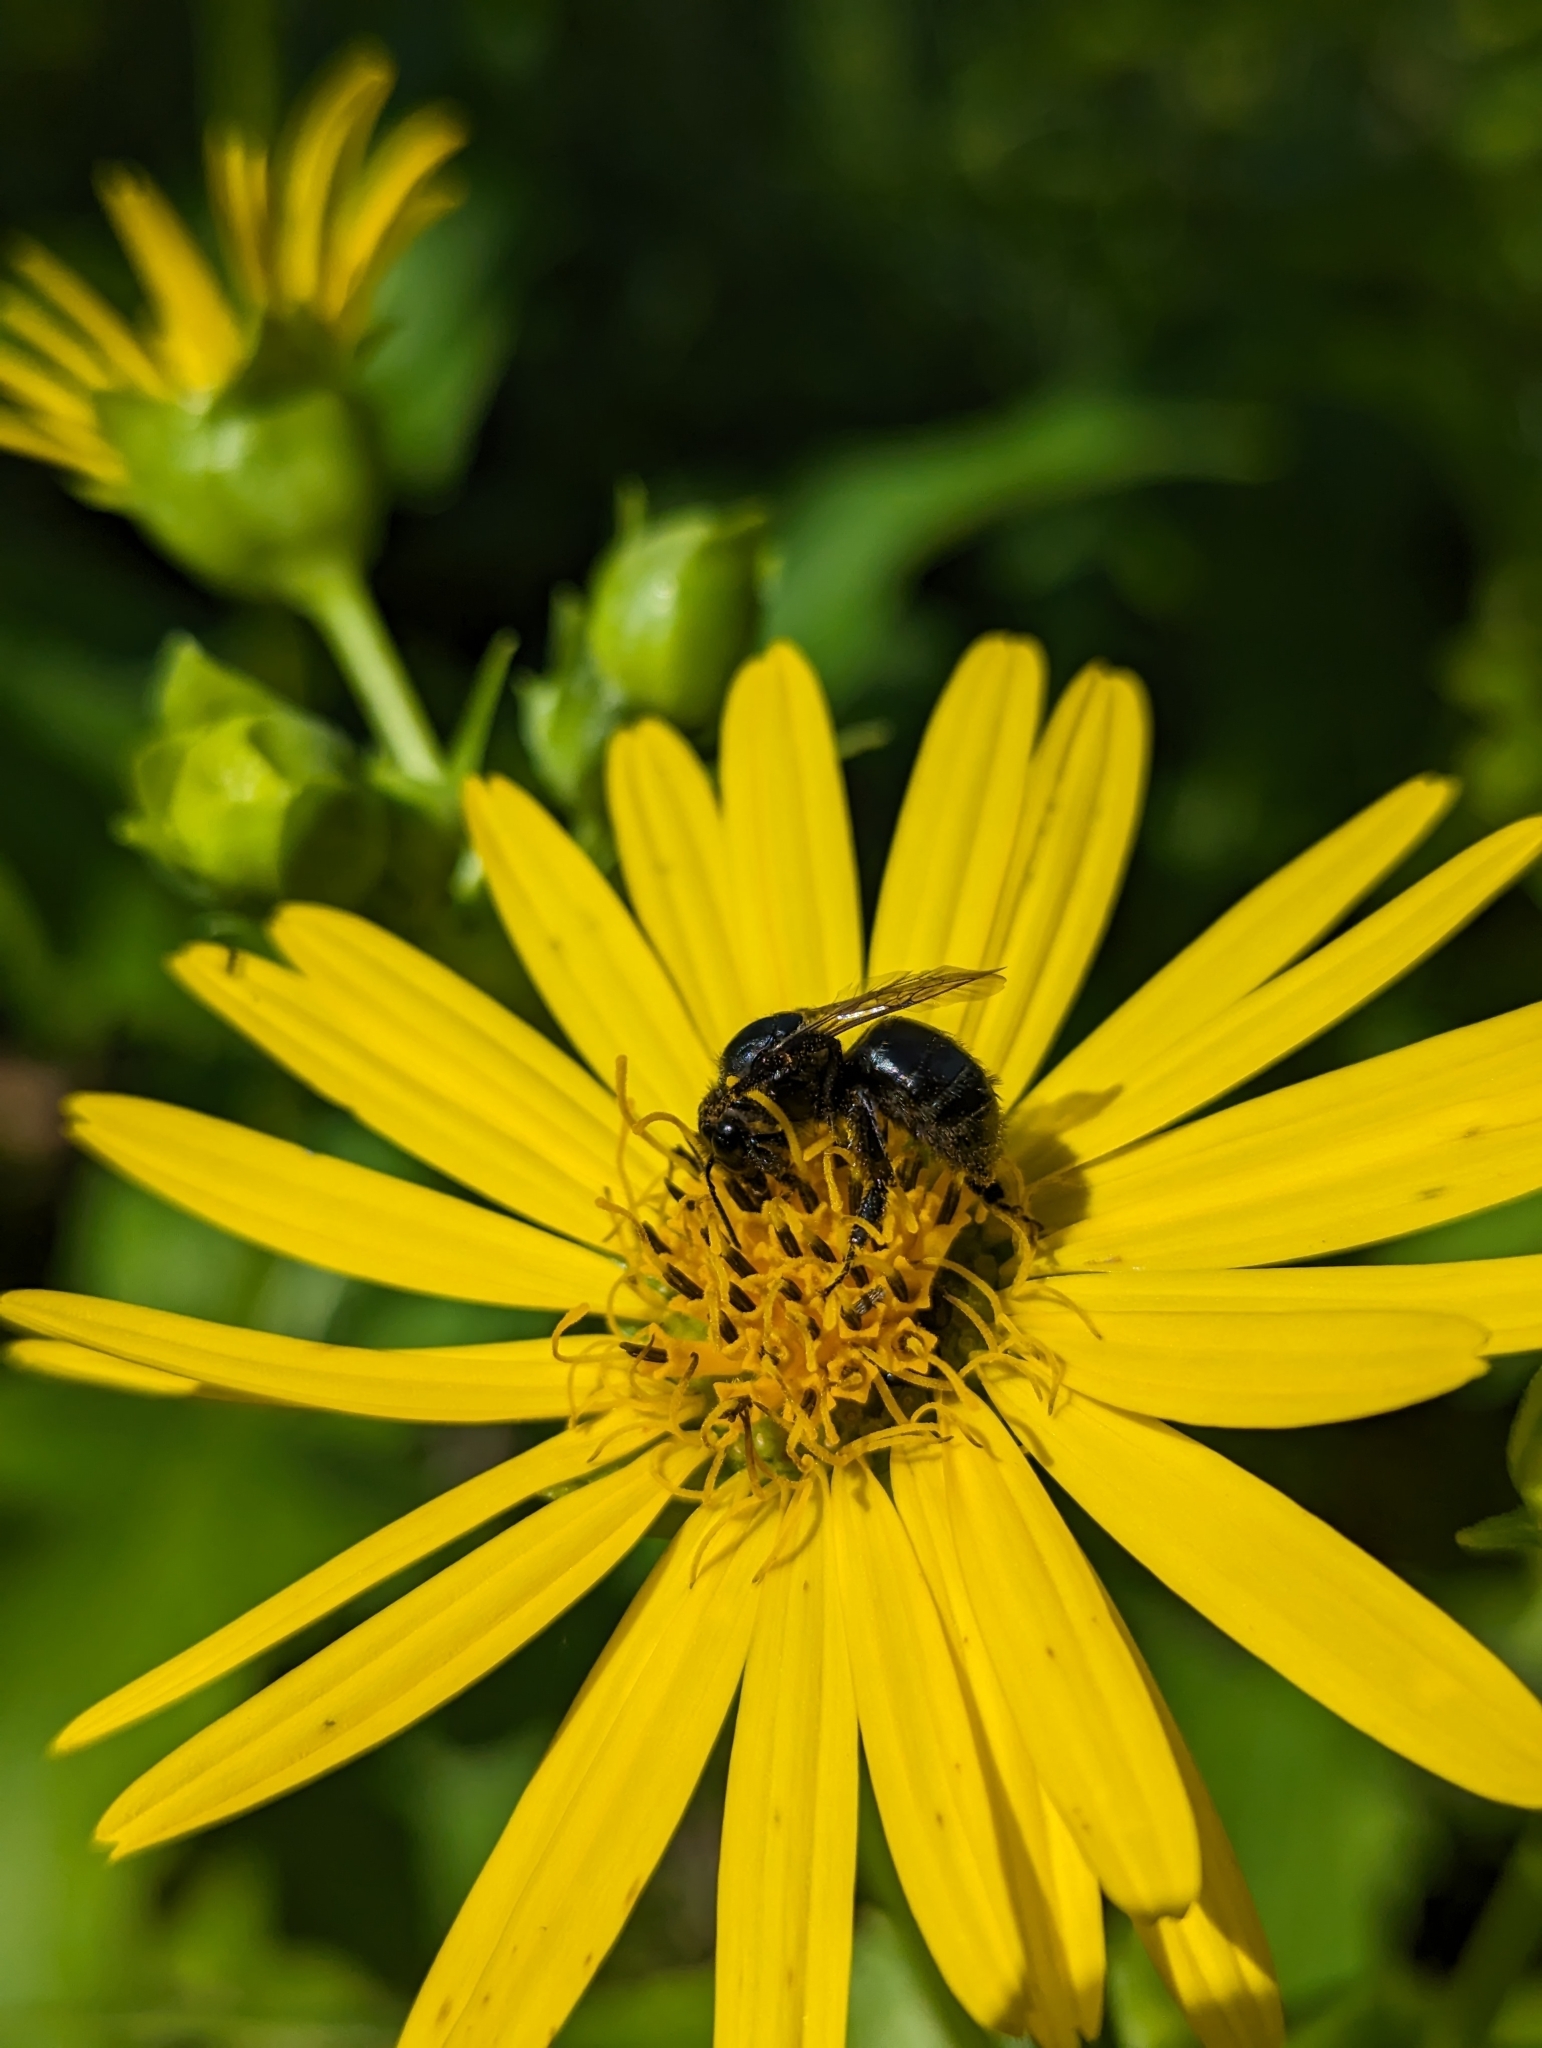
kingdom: Animalia
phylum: Arthropoda
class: Insecta
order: Hymenoptera
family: Apidae
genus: Bombus
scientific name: Bombus
